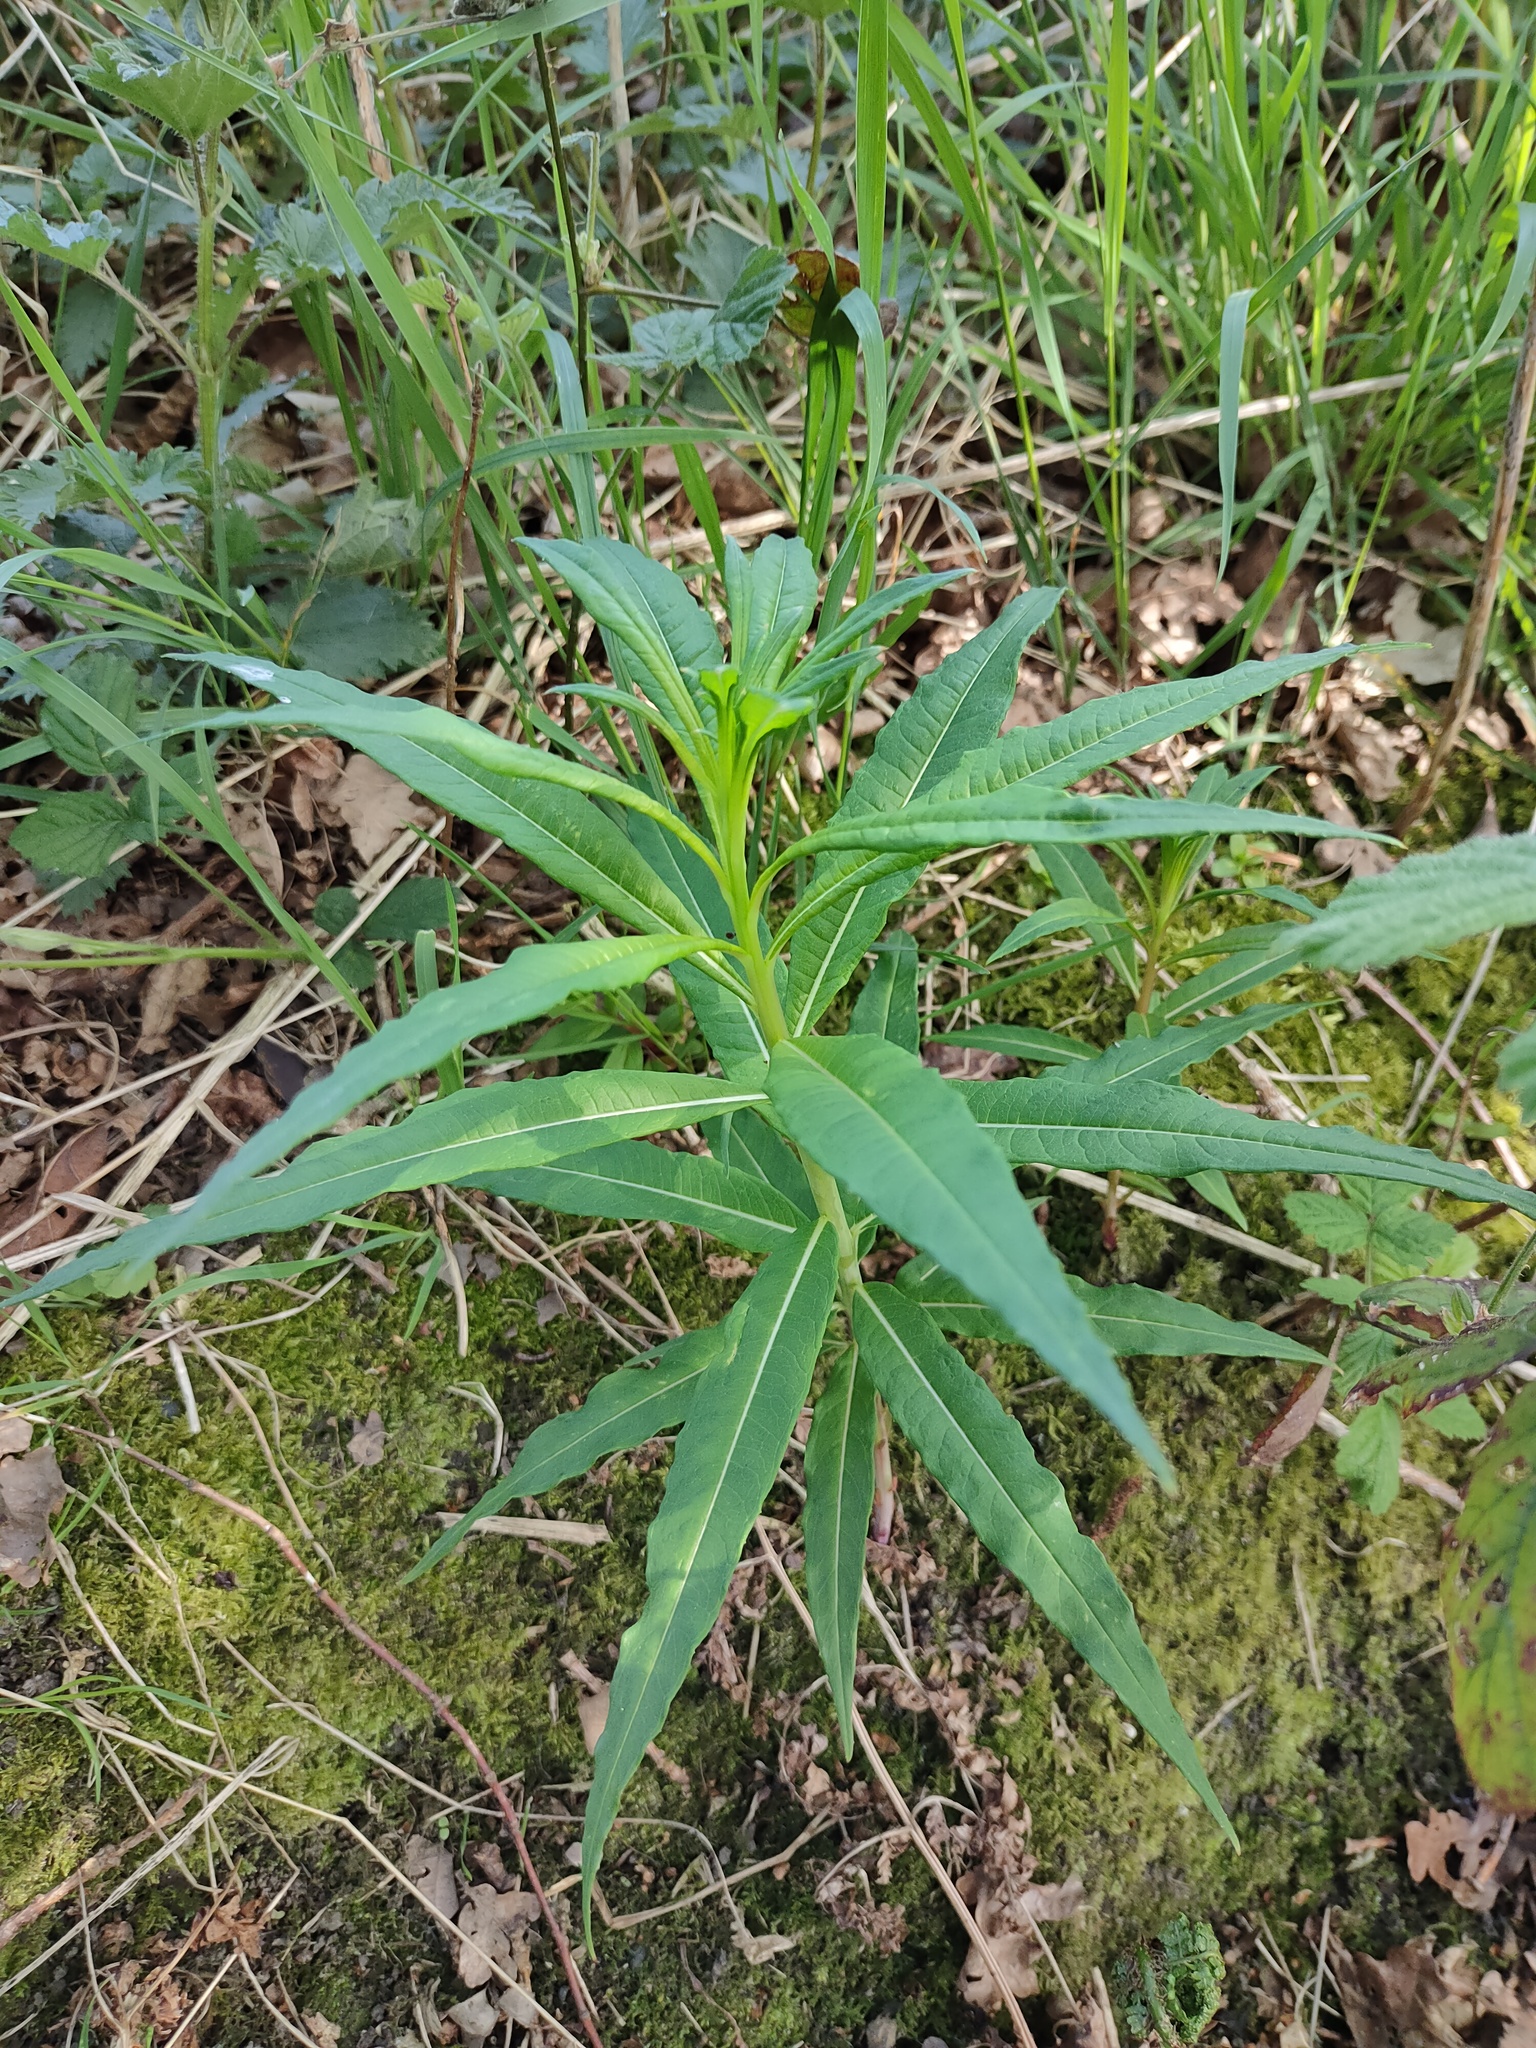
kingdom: Plantae
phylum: Tracheophyta
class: Magnoliopsida
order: Myrtales
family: Onagraceae
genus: Chamaenerion
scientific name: Chamaenerion angustifolium
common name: Fireweed
